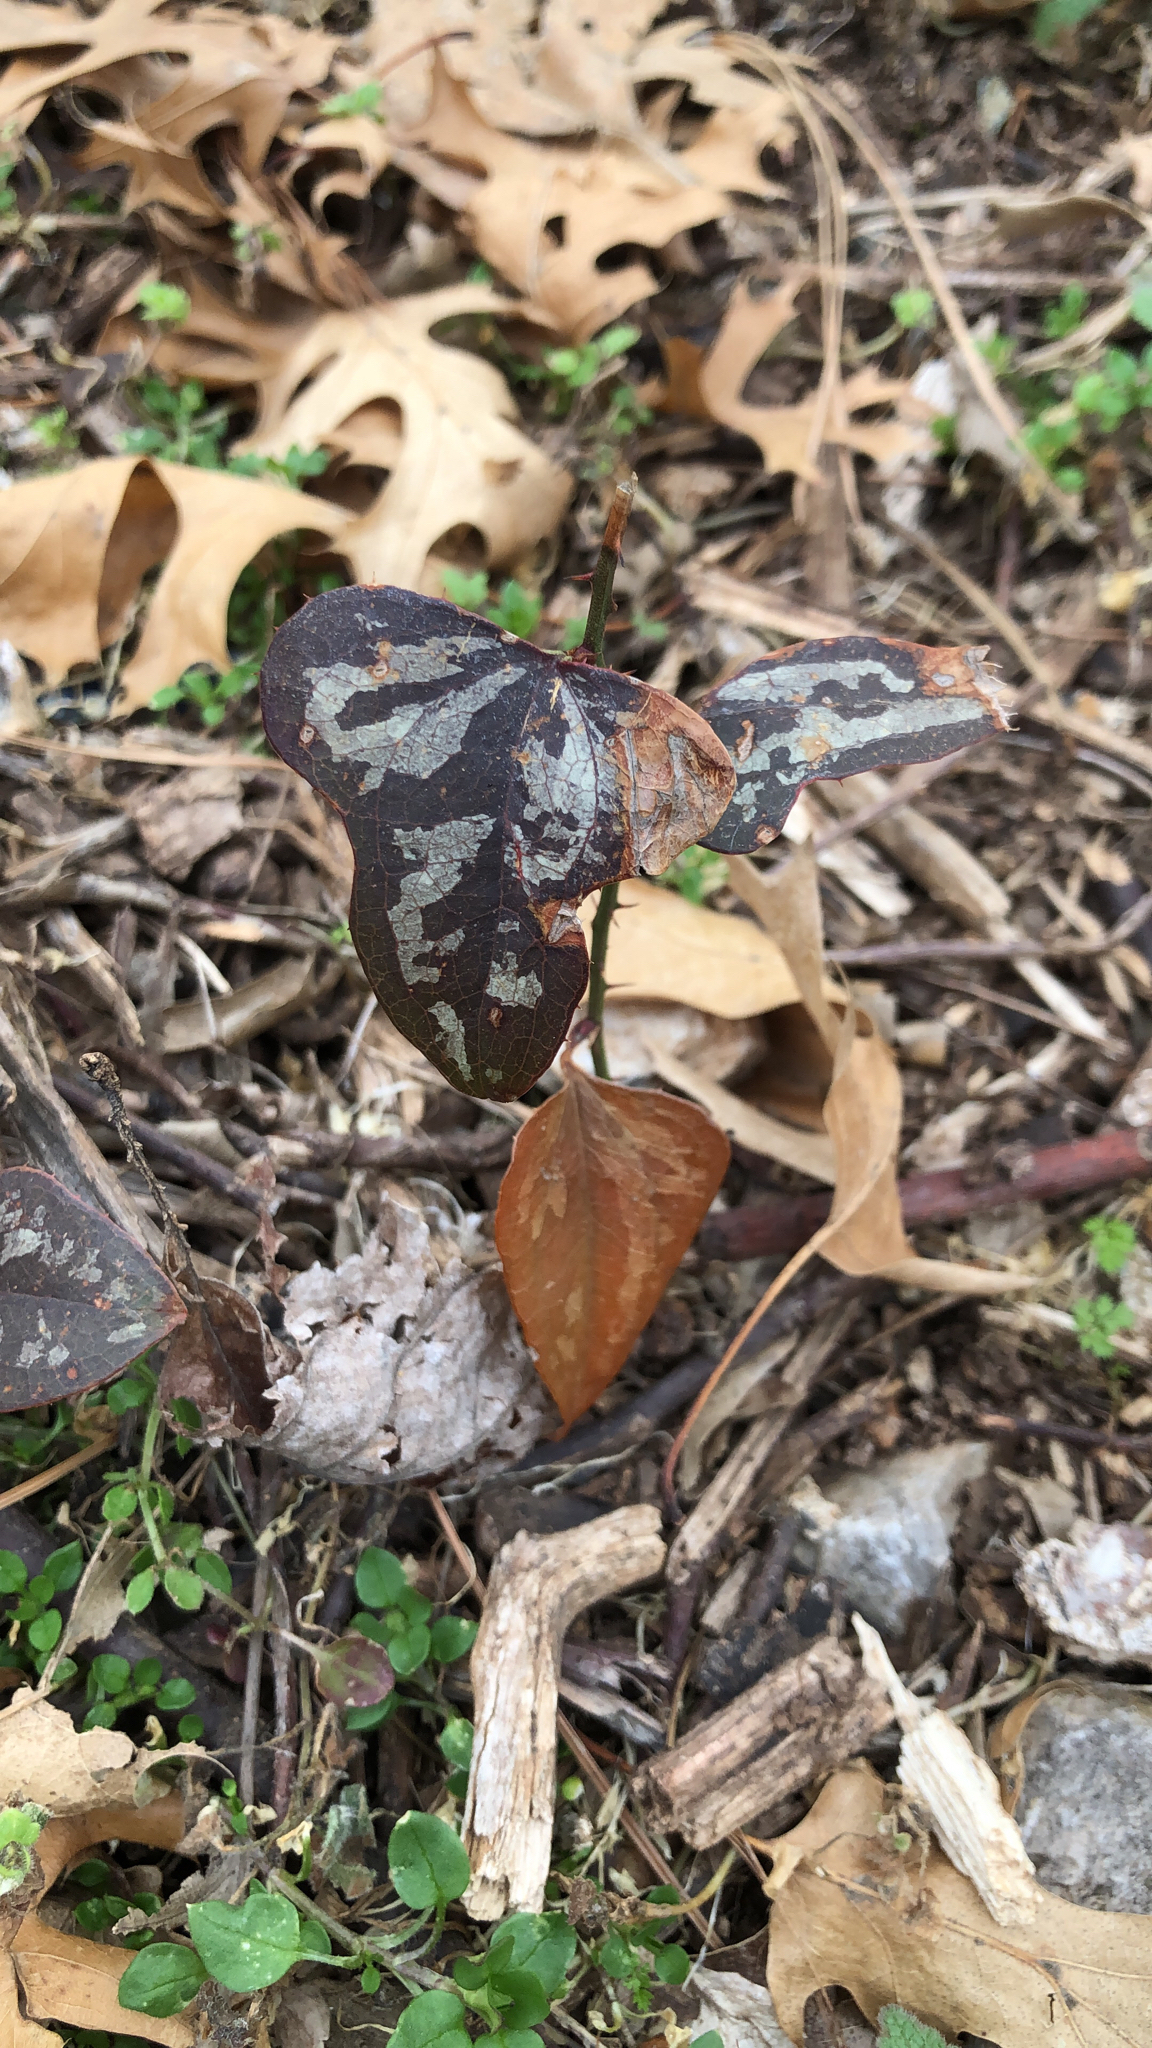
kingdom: Plantae
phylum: Tracheophyta
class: Liliopsida
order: Liliales
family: Smilacaceae
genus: Smilax
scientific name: Smilax bona-nox
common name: Catbrier
